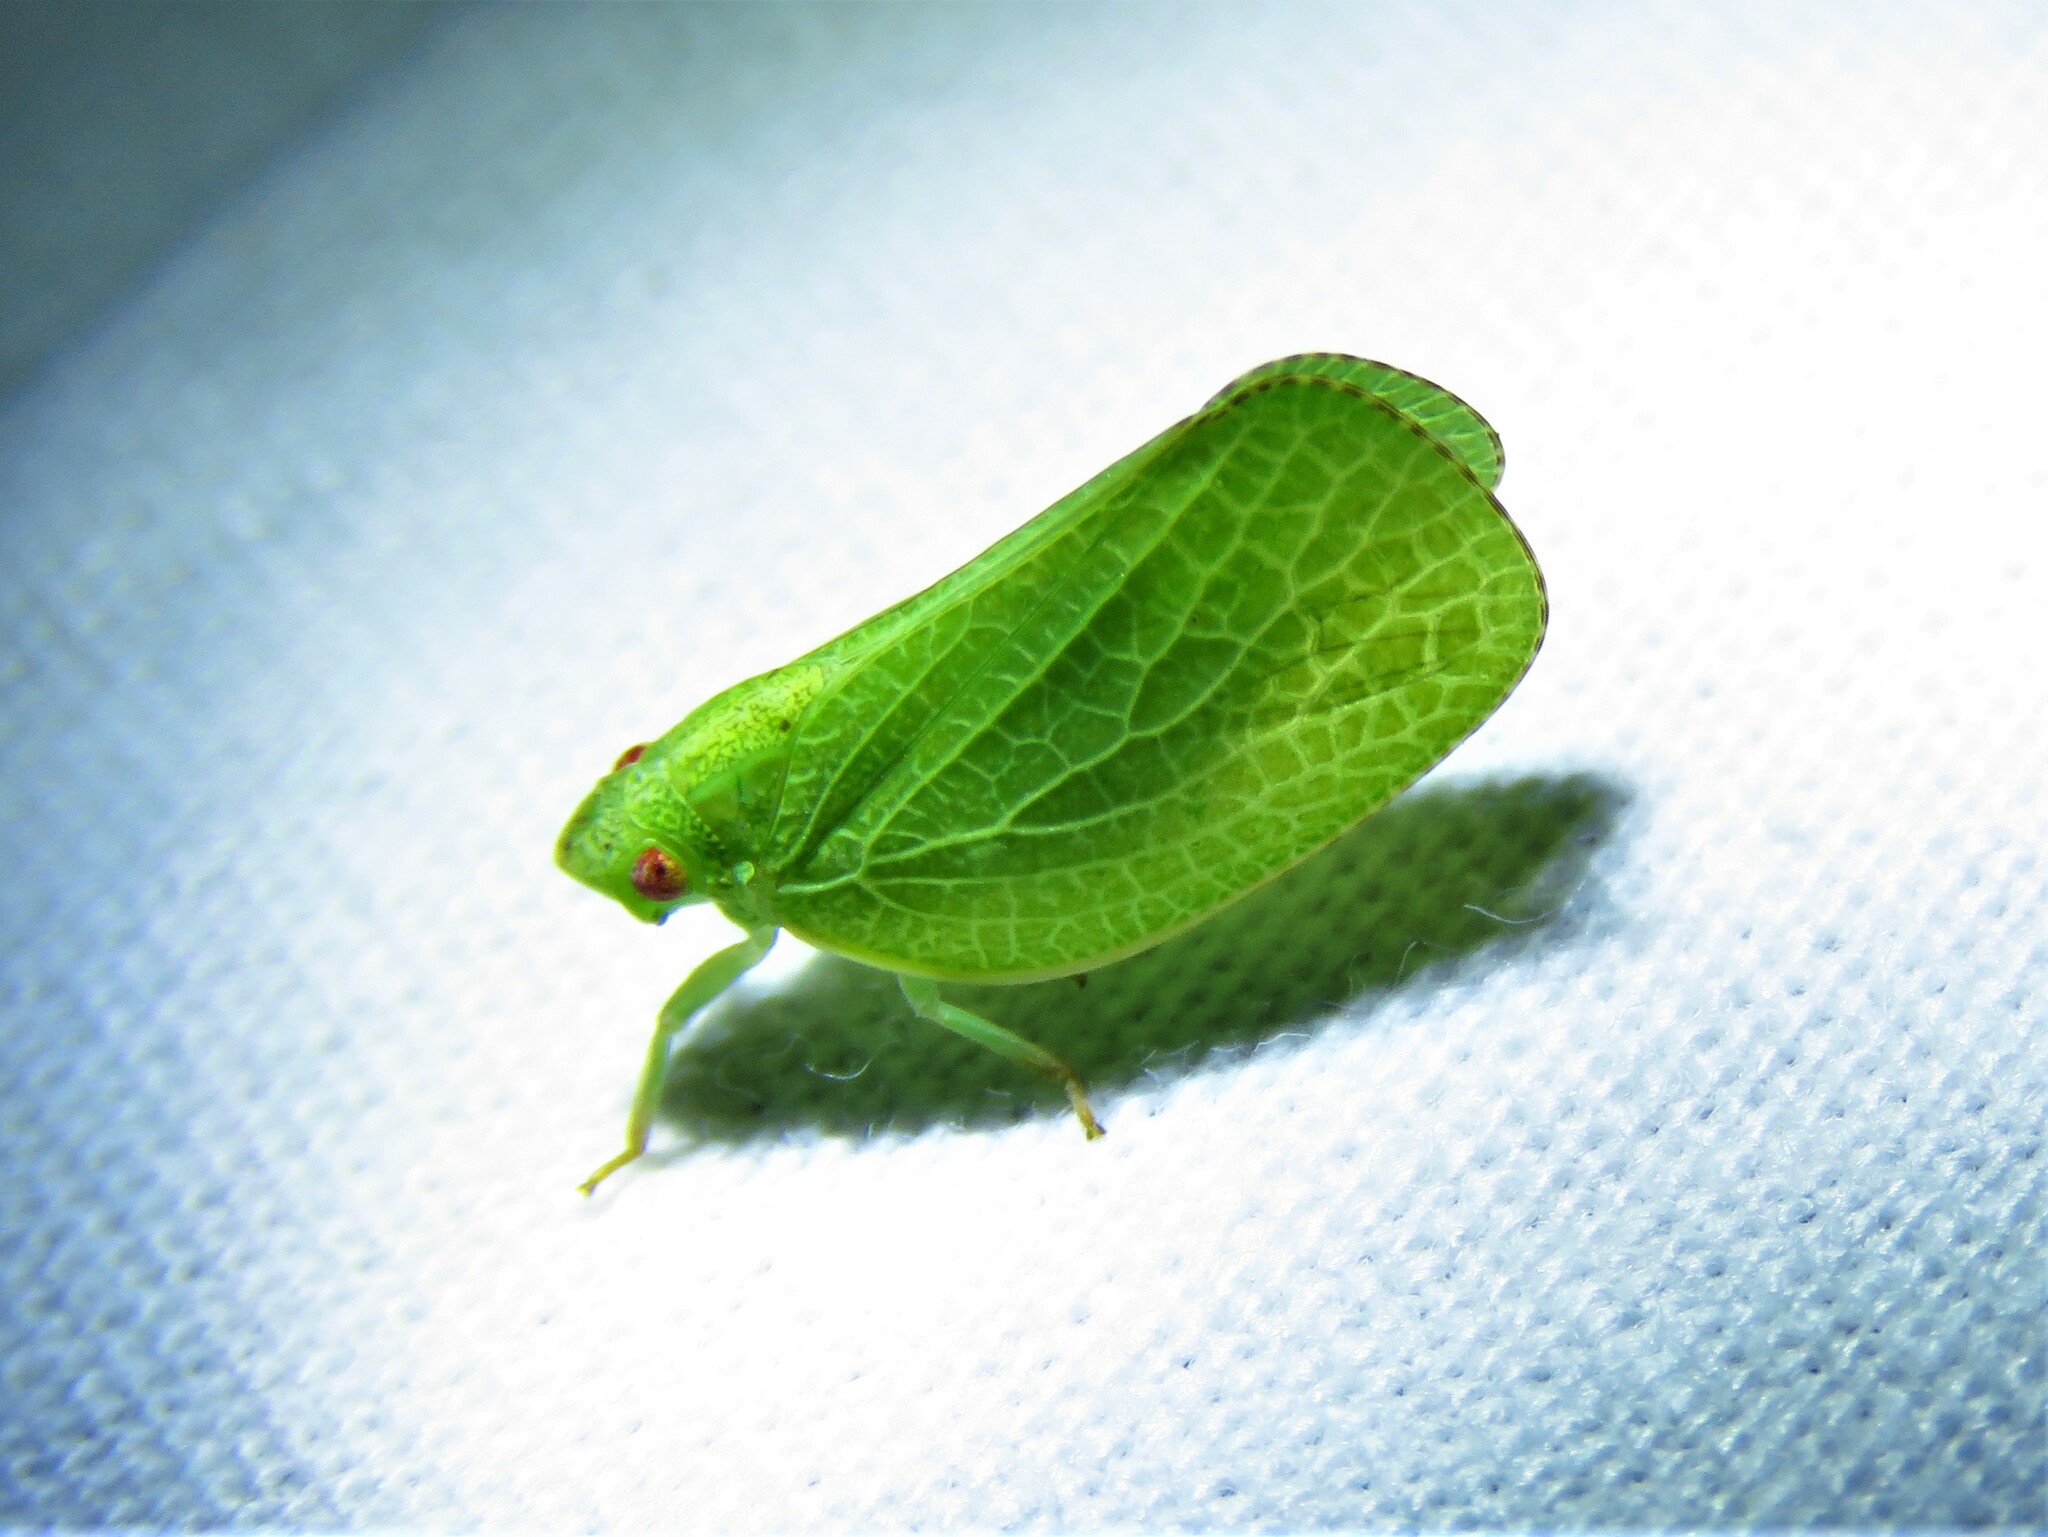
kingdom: Animalia
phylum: Arthropoda
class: Insecta
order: Hemiptera
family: Acanaloniidae
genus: Acanalonia
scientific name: Acanalonia conica
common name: Green cone-headed planthopper
